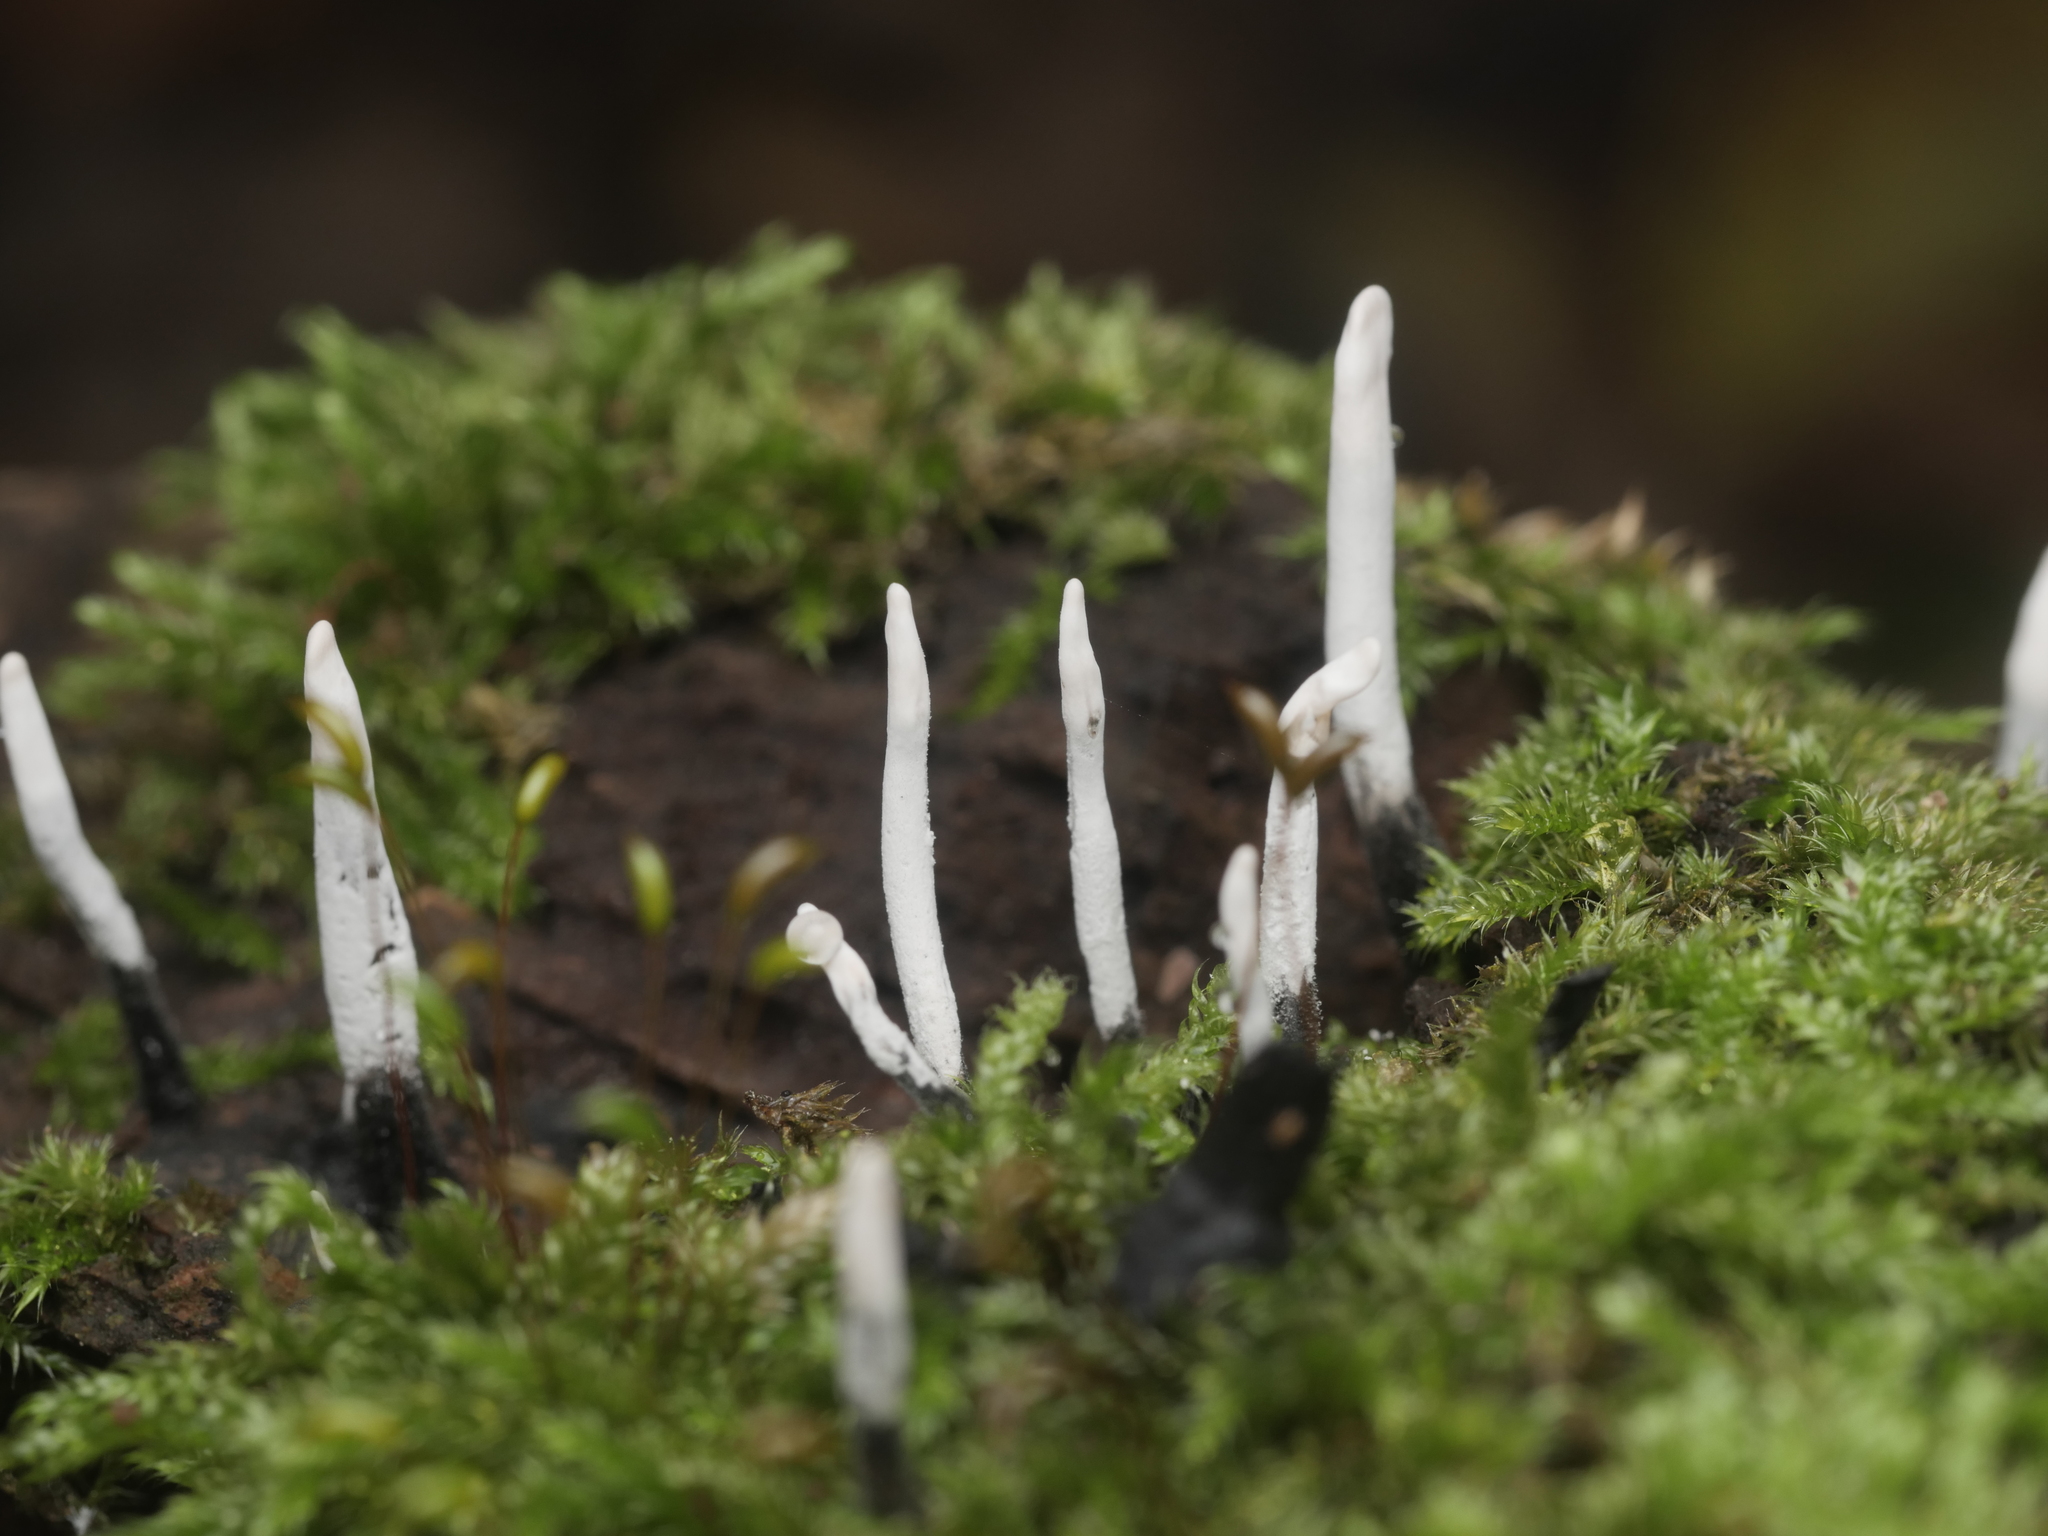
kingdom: Fungi
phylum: Ascomycota
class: Sordariomycetes
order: Xylariales
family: Xylariaceae
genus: Xylaria
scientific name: Xylaria hypoxylon
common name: Candle-snuff fungus
